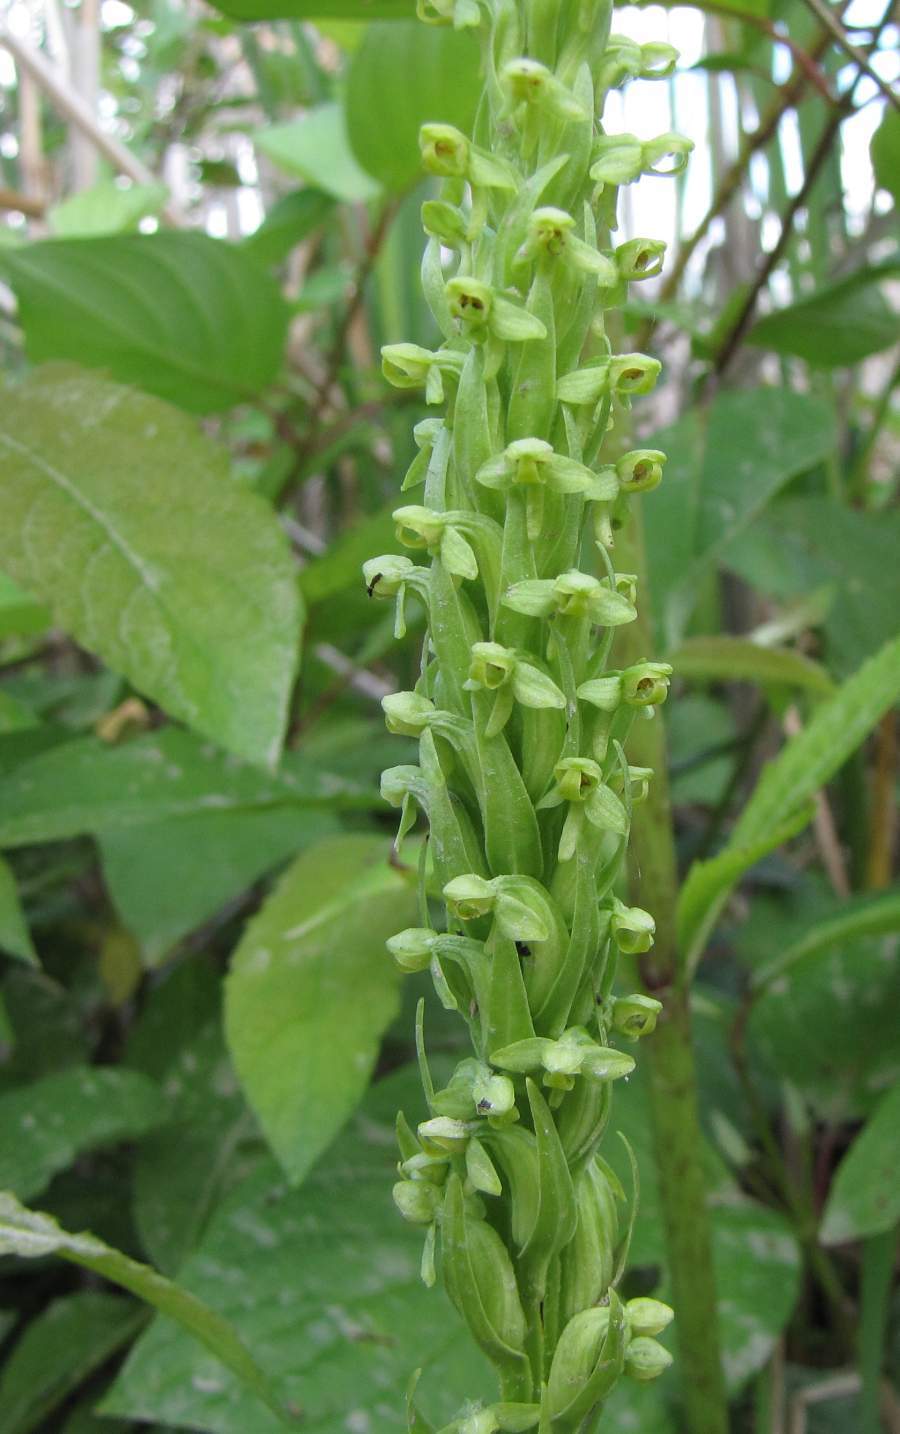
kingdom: Plantae
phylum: Tracheophyta
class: Liliopsida
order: Asparagales
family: Orchidaceae
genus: Platanthera
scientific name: Platanthera aquilonis
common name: Northern green orchid
